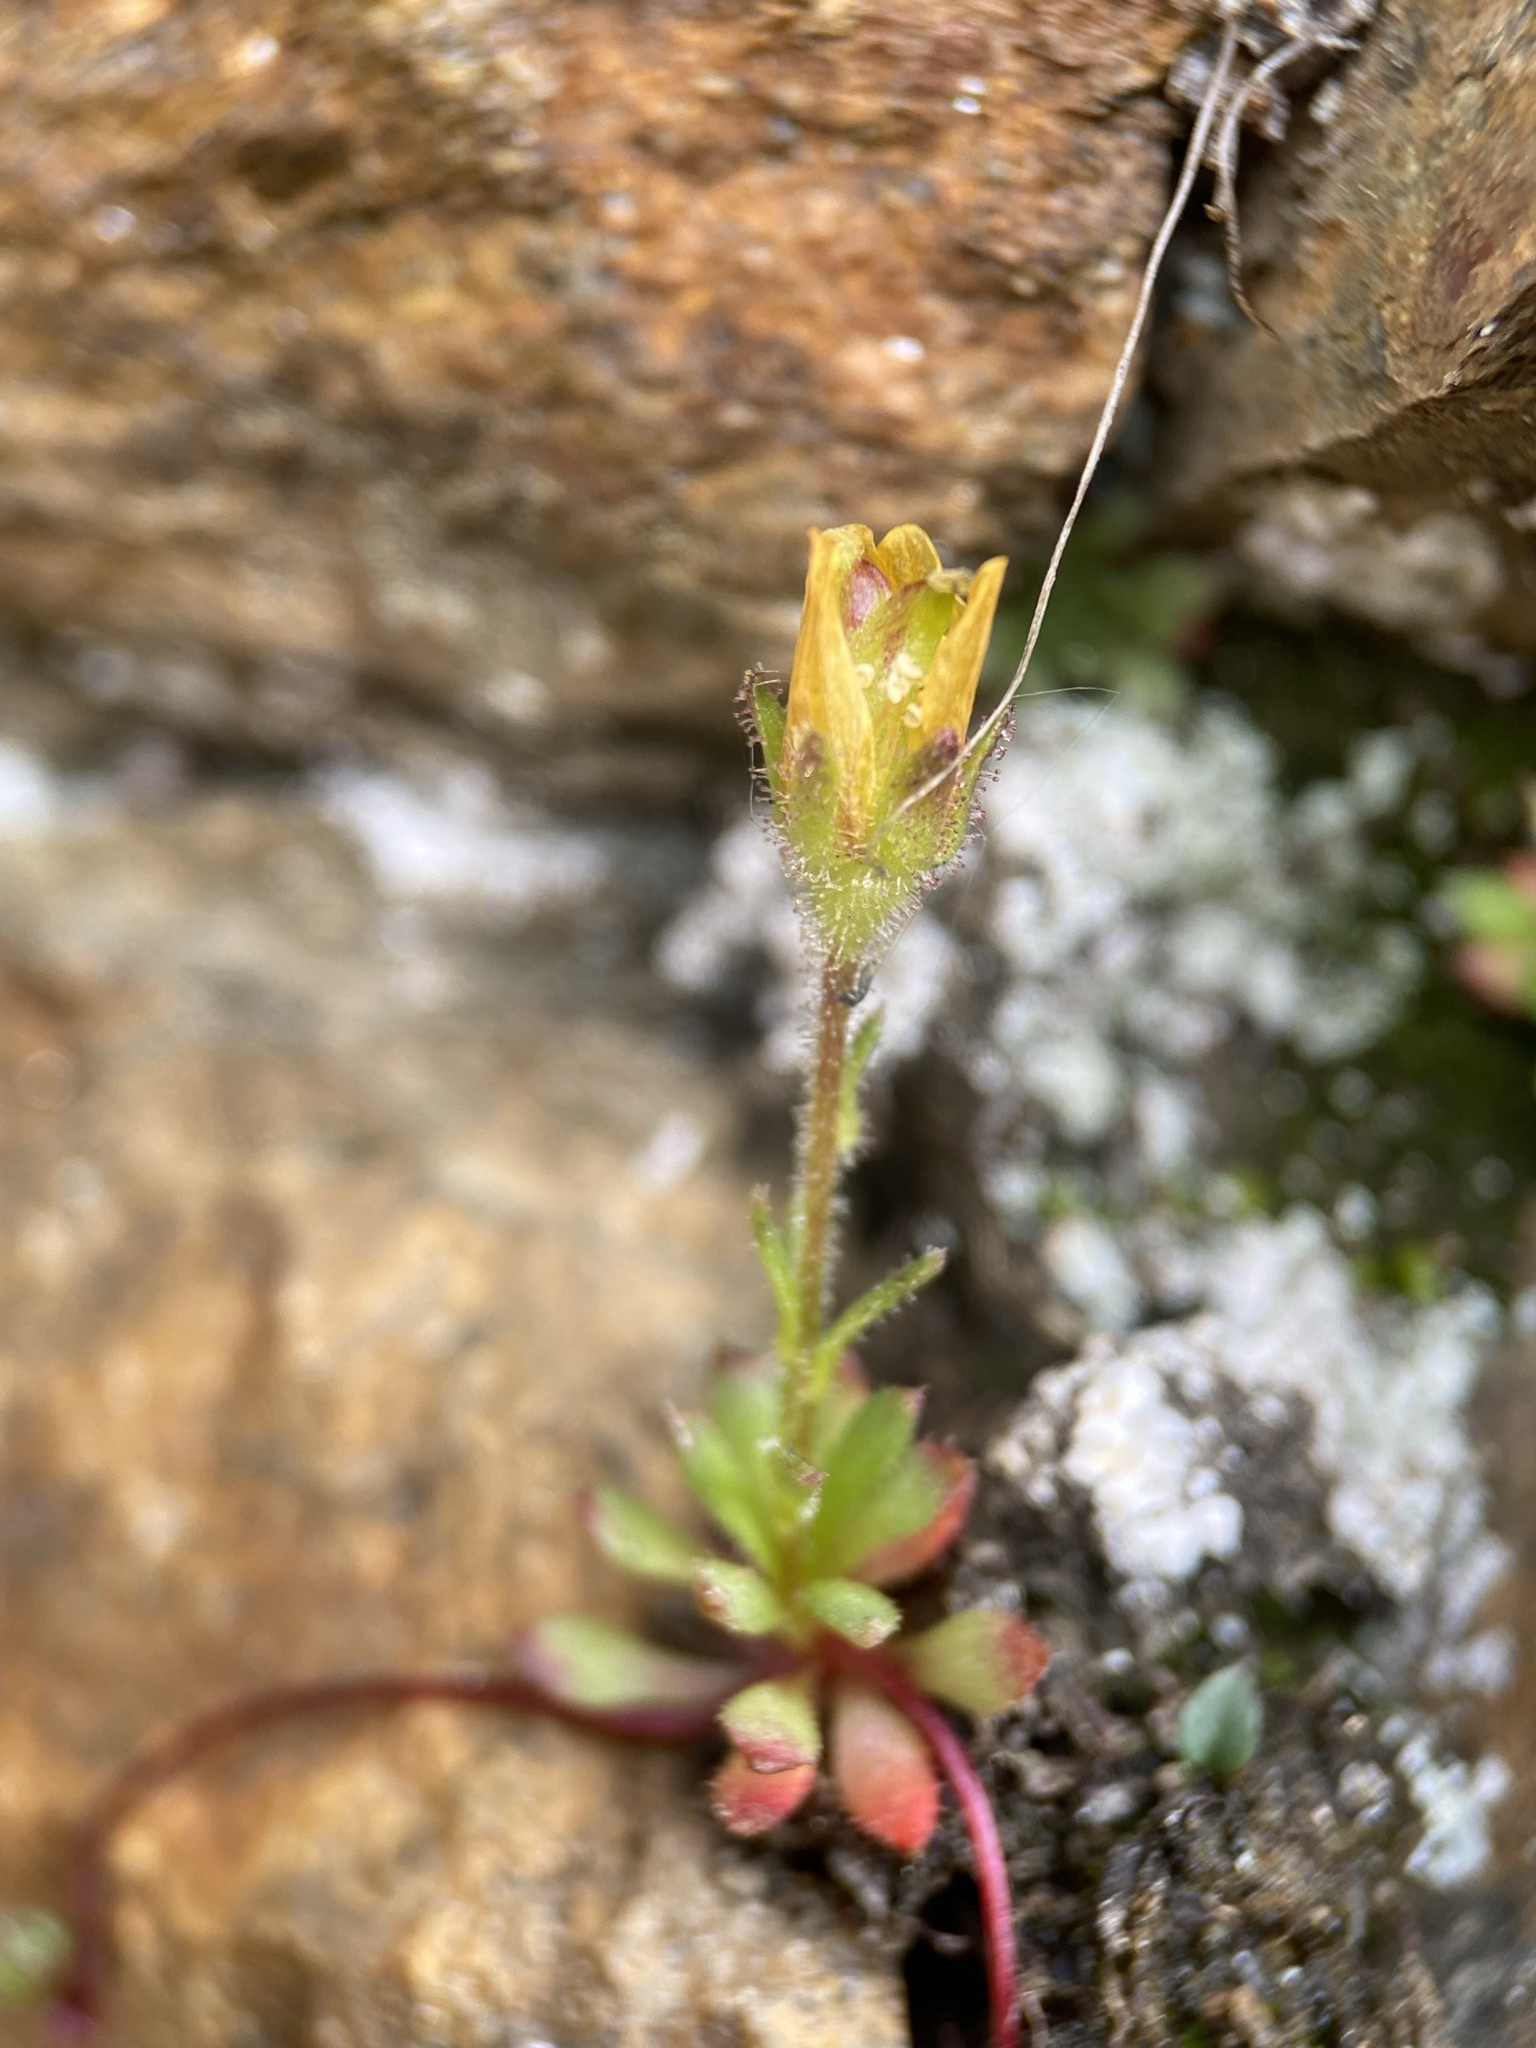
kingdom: Plantae
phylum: Tracheophyta
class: Magnoliopsida
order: Saxifragales
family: Saxifragaceae
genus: Saxifraga
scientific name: Saxifraga flagellaris
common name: Spider saxifrage
